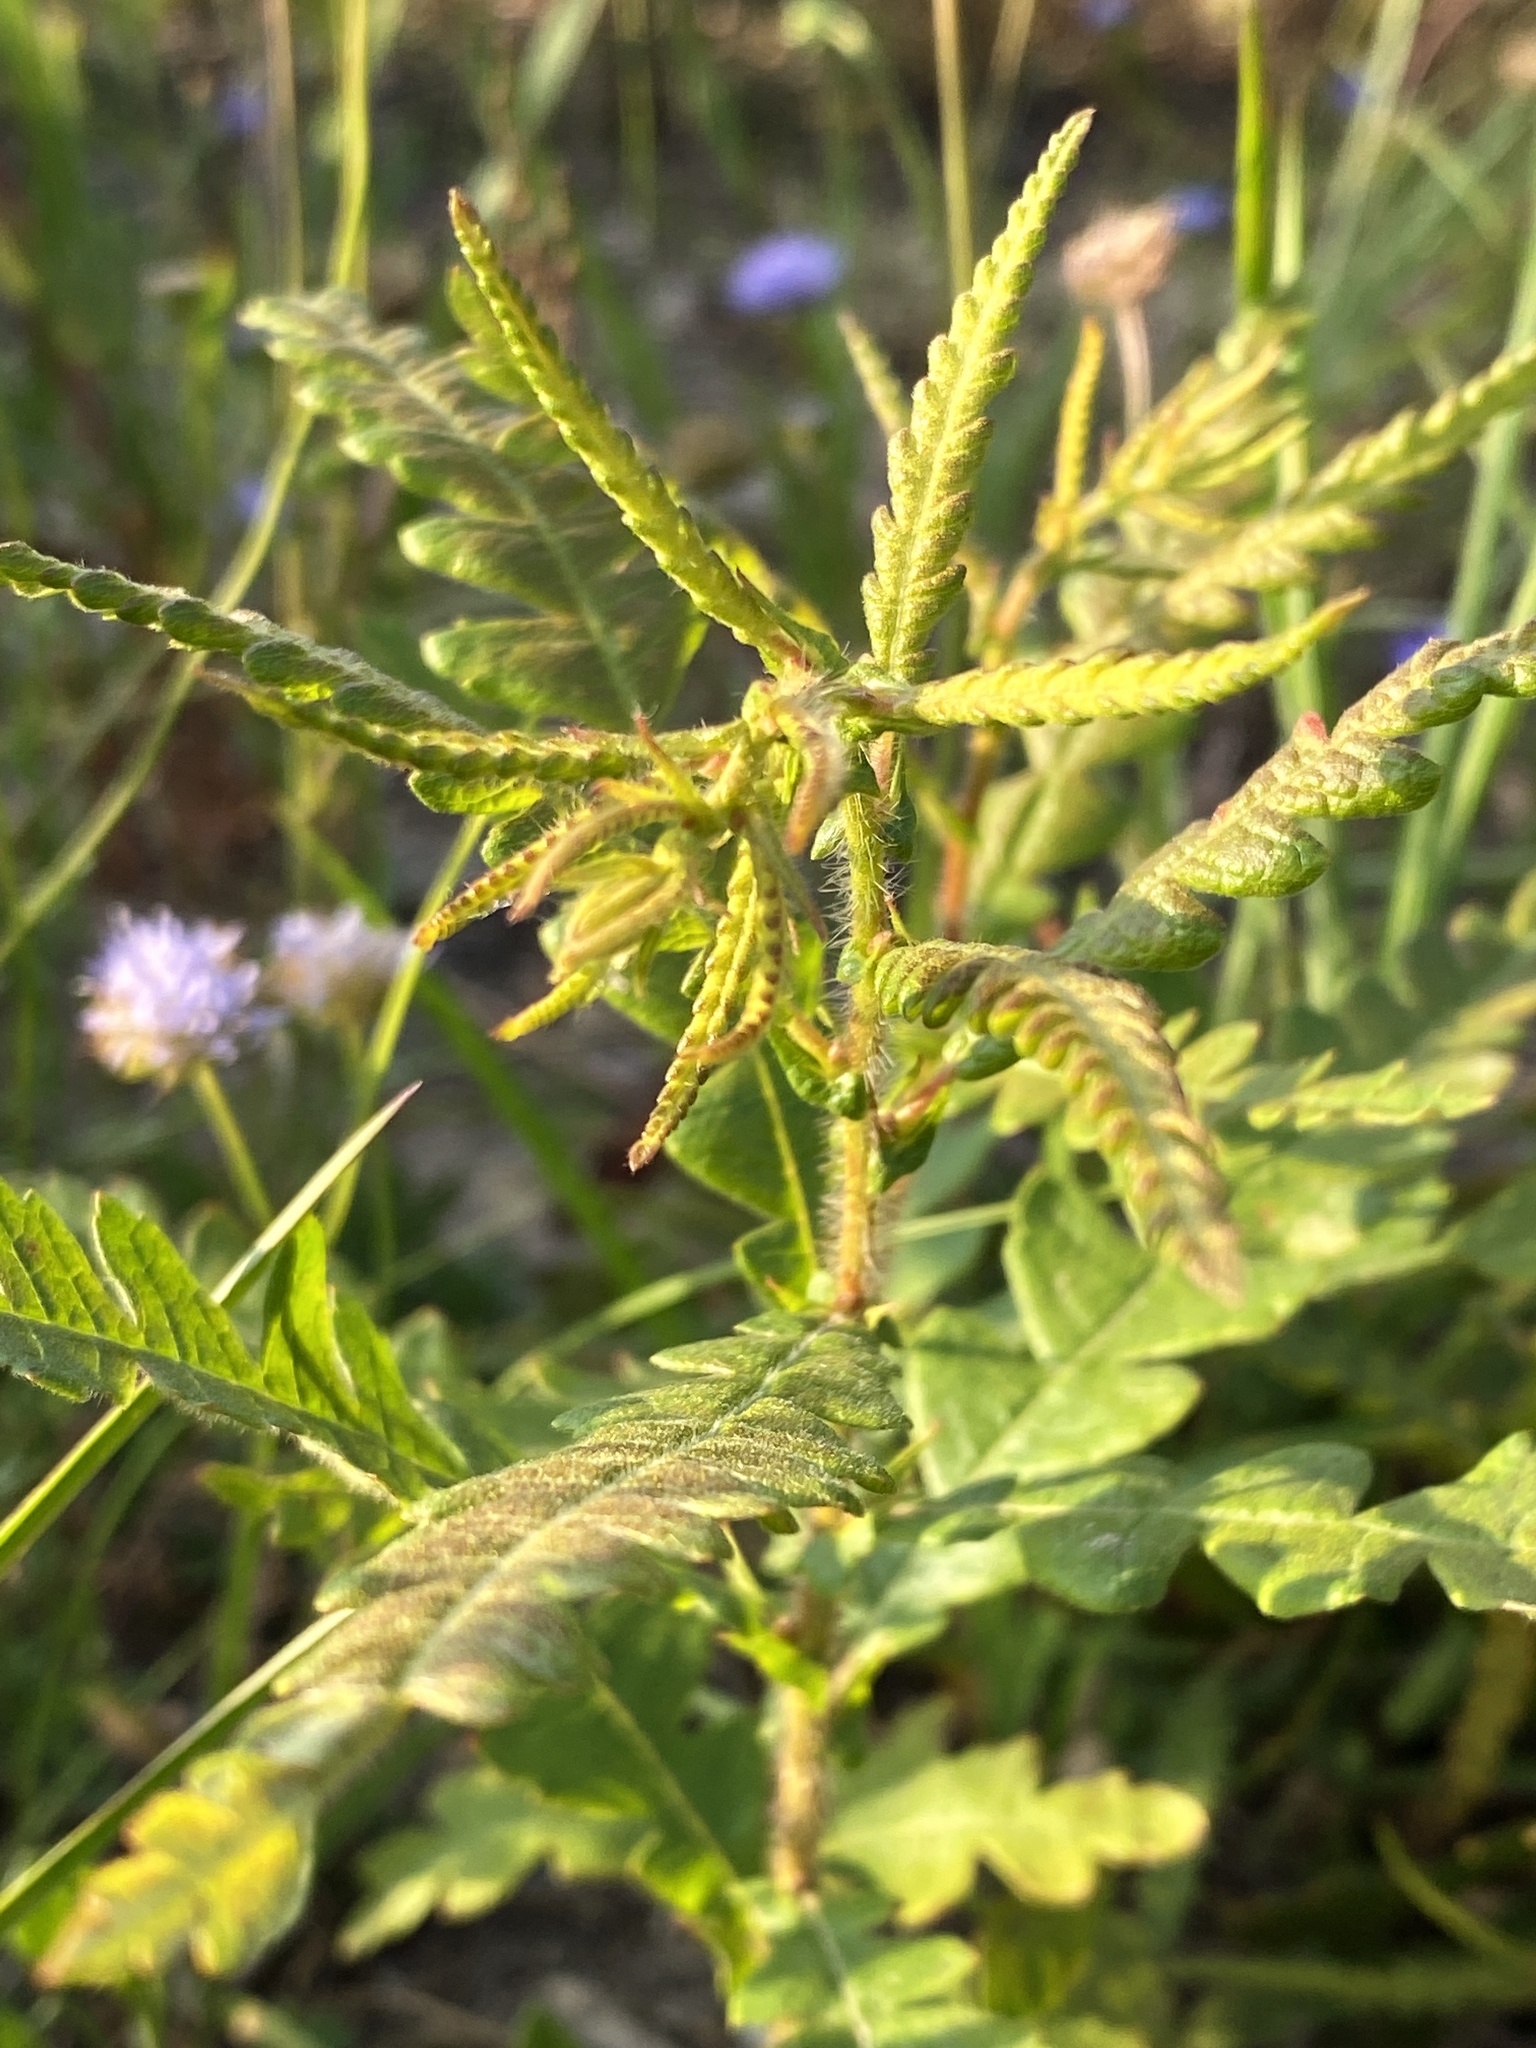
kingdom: Plantae
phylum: Tracheophyta
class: Magnoliopsida
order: Fagales
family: Myricaceae
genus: Comptonia
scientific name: Comptonia peregrina
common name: Sweet-fern
